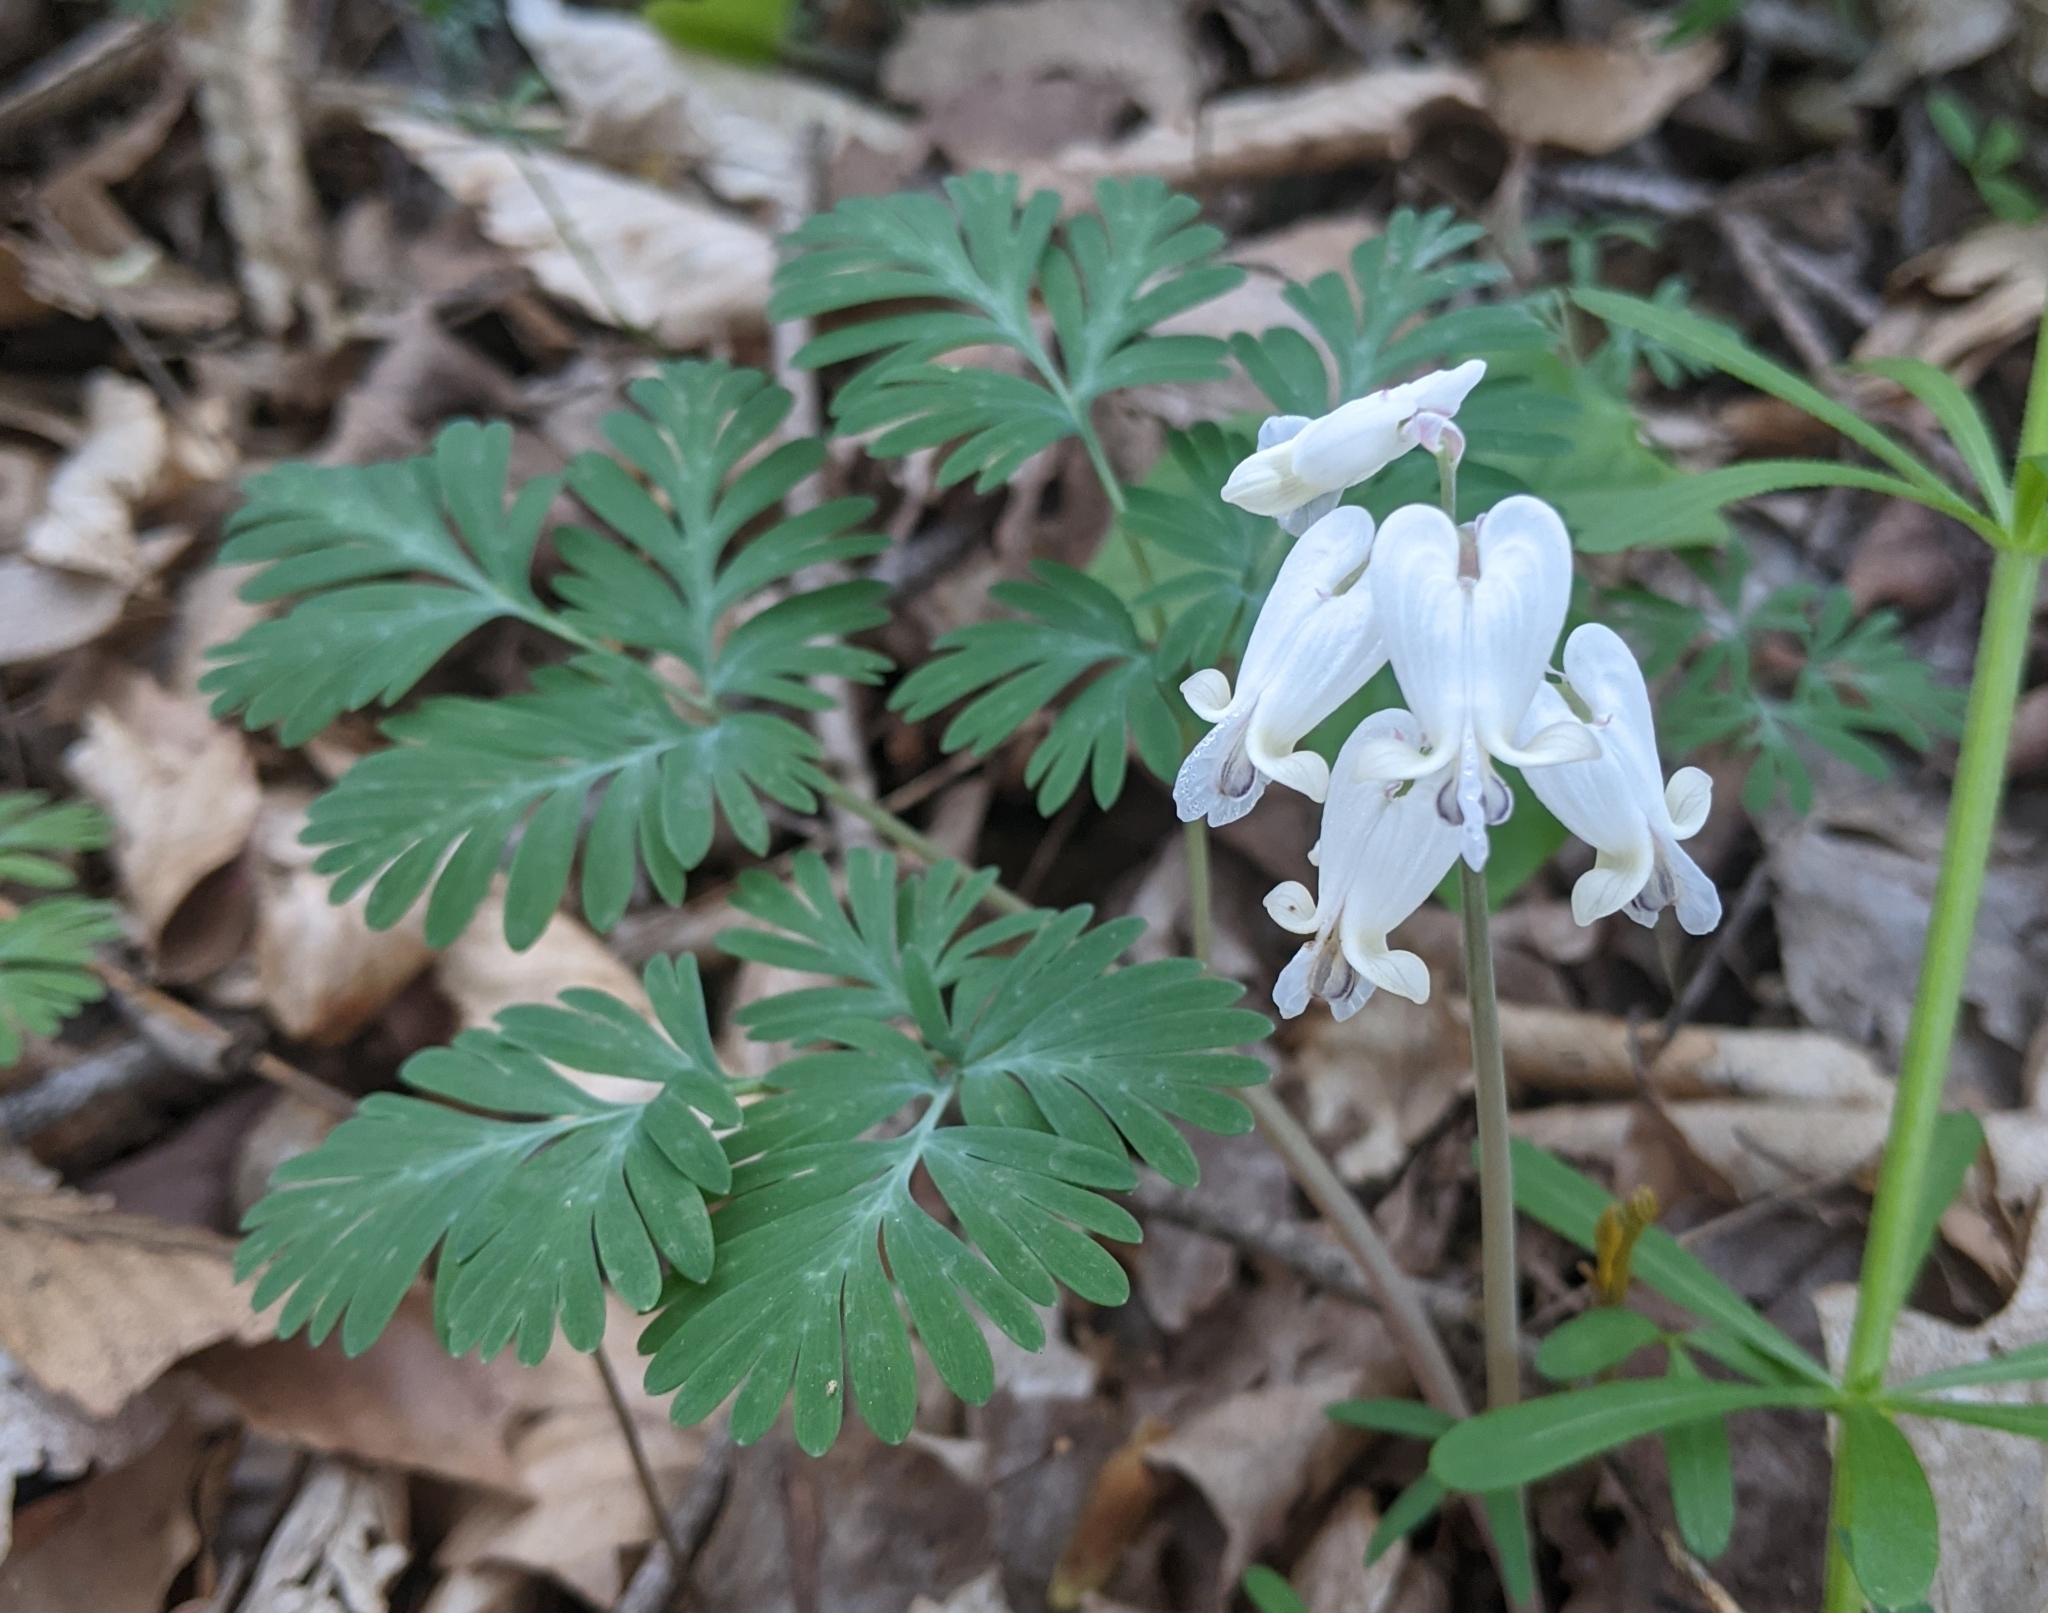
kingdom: Plantae
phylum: Tracheophyta
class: Magnoliopsida
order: Ranunculales
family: Papaveraceae
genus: Dicentra
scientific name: Dicentra canadensis
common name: Squirrel-corn
